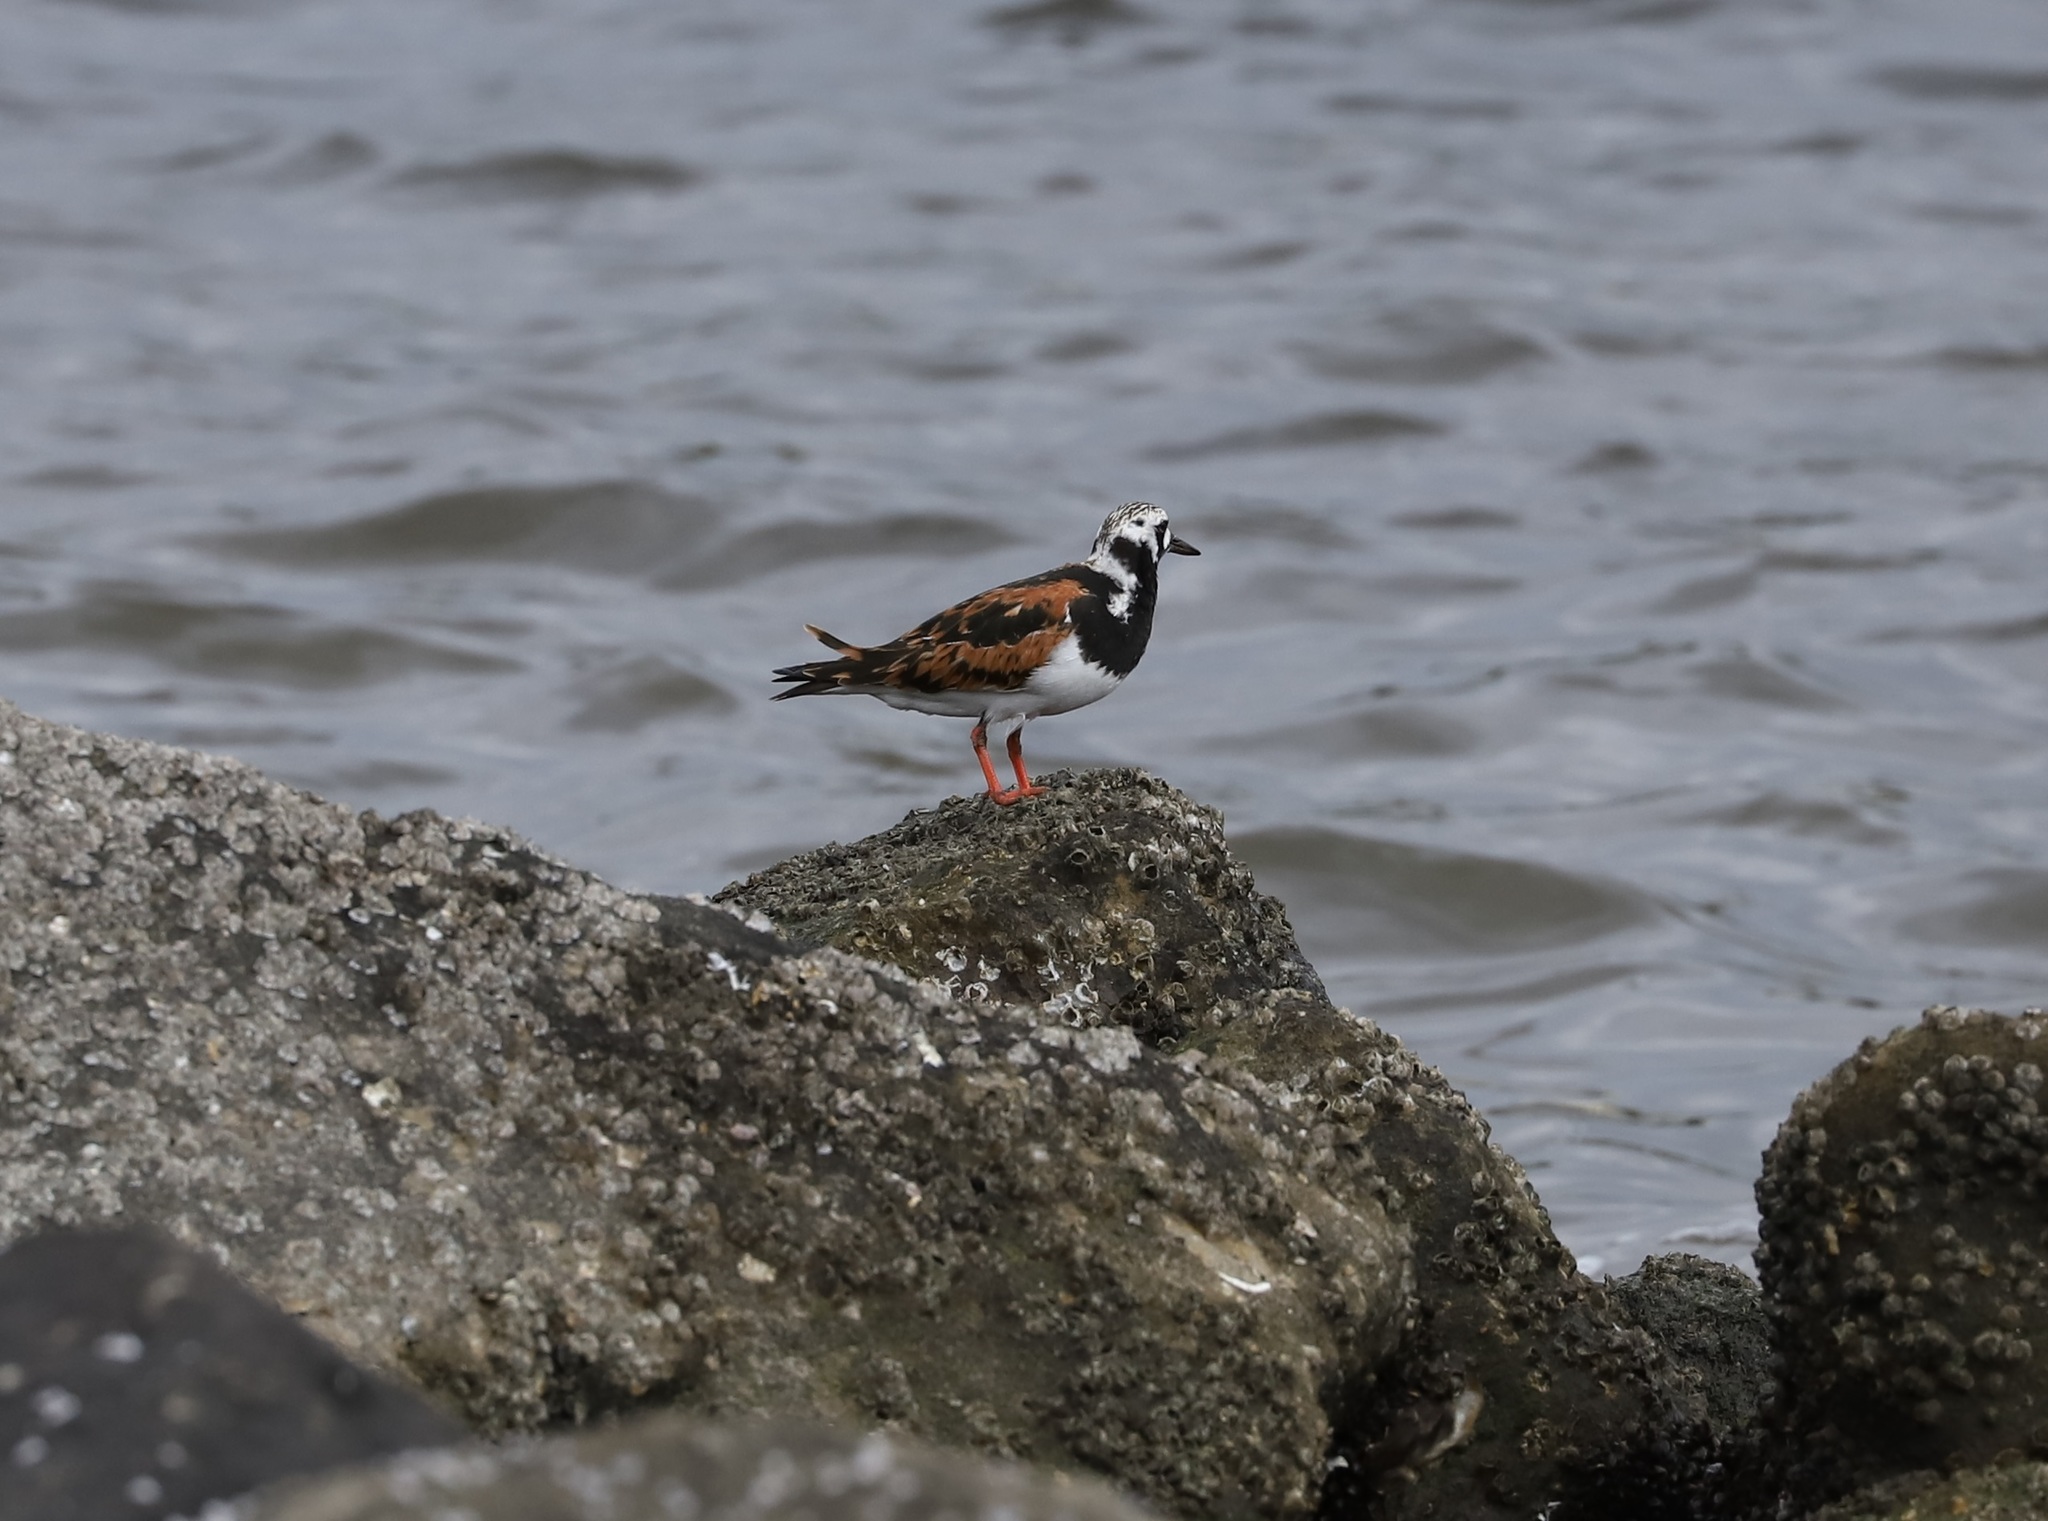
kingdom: Animalia
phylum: Chordata
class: Aves
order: Charadriiformes
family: Scolopacidae
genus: Arenaria
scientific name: Arenaria interpres
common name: Ruddy turnstone
